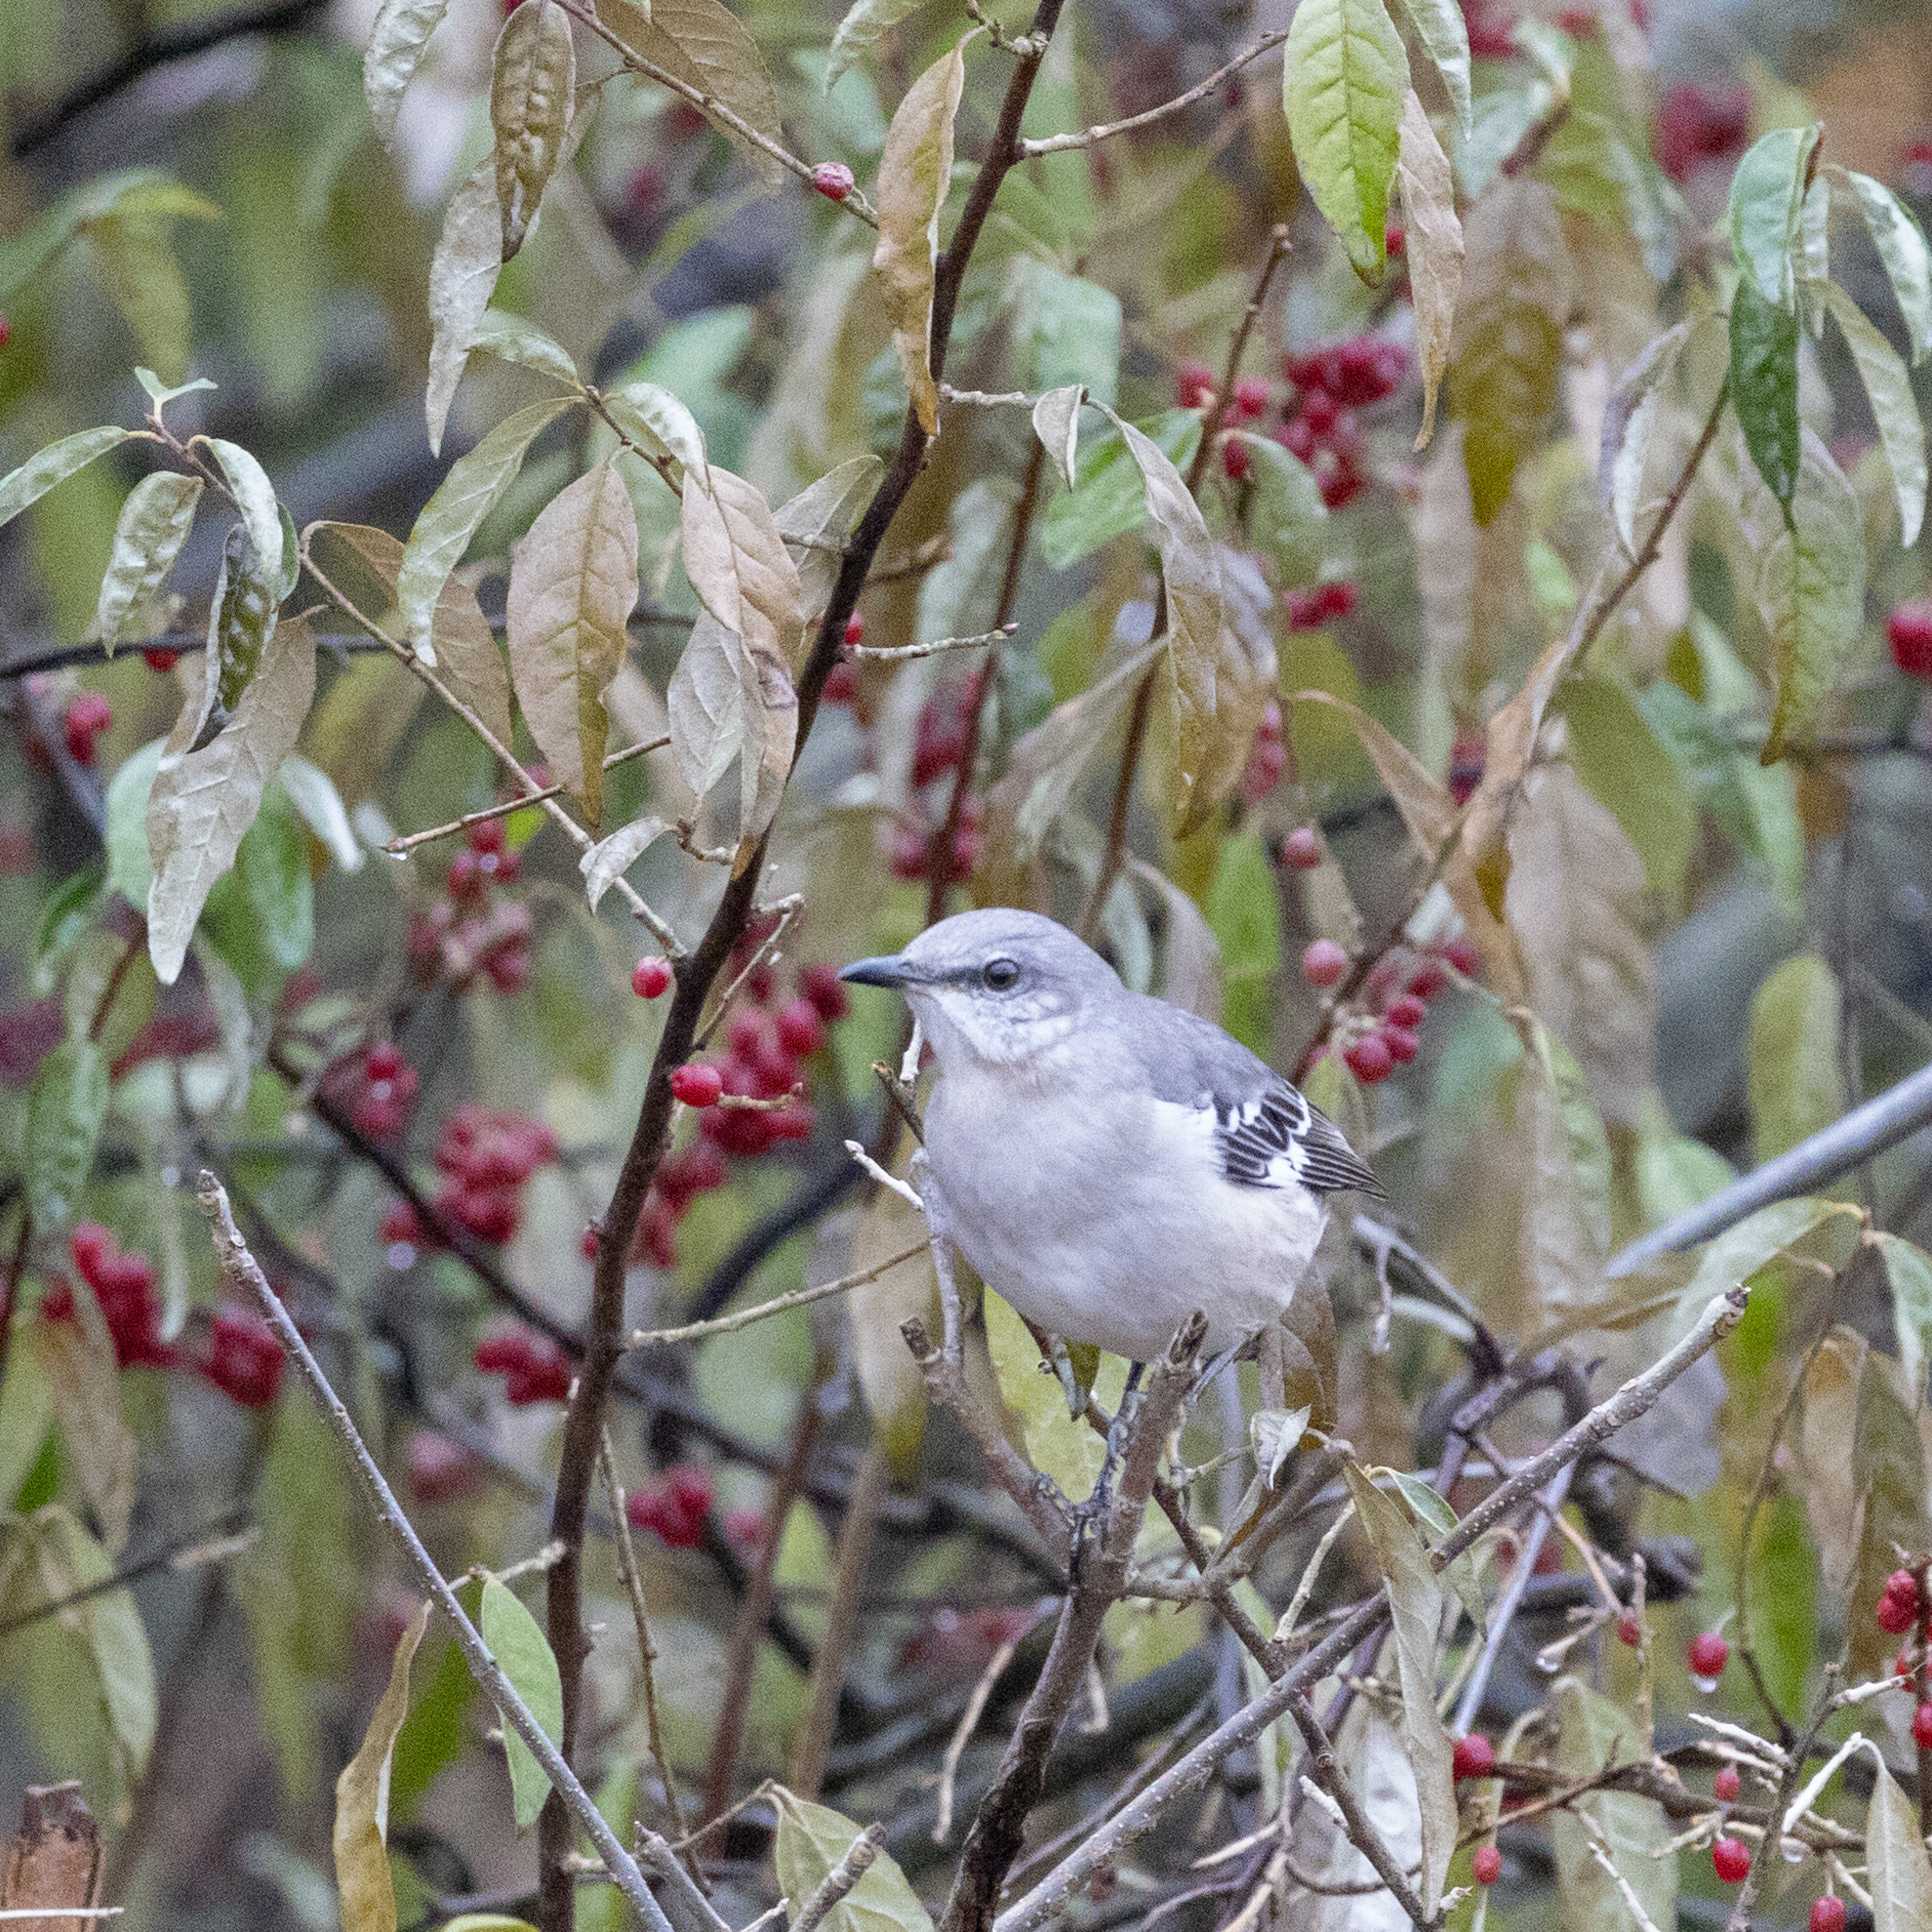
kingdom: Animalia
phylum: Chordata
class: Aves
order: Passeriformes
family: Mimidae
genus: Mimus
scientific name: Mimus polyglottos
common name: Northern mockingbird
